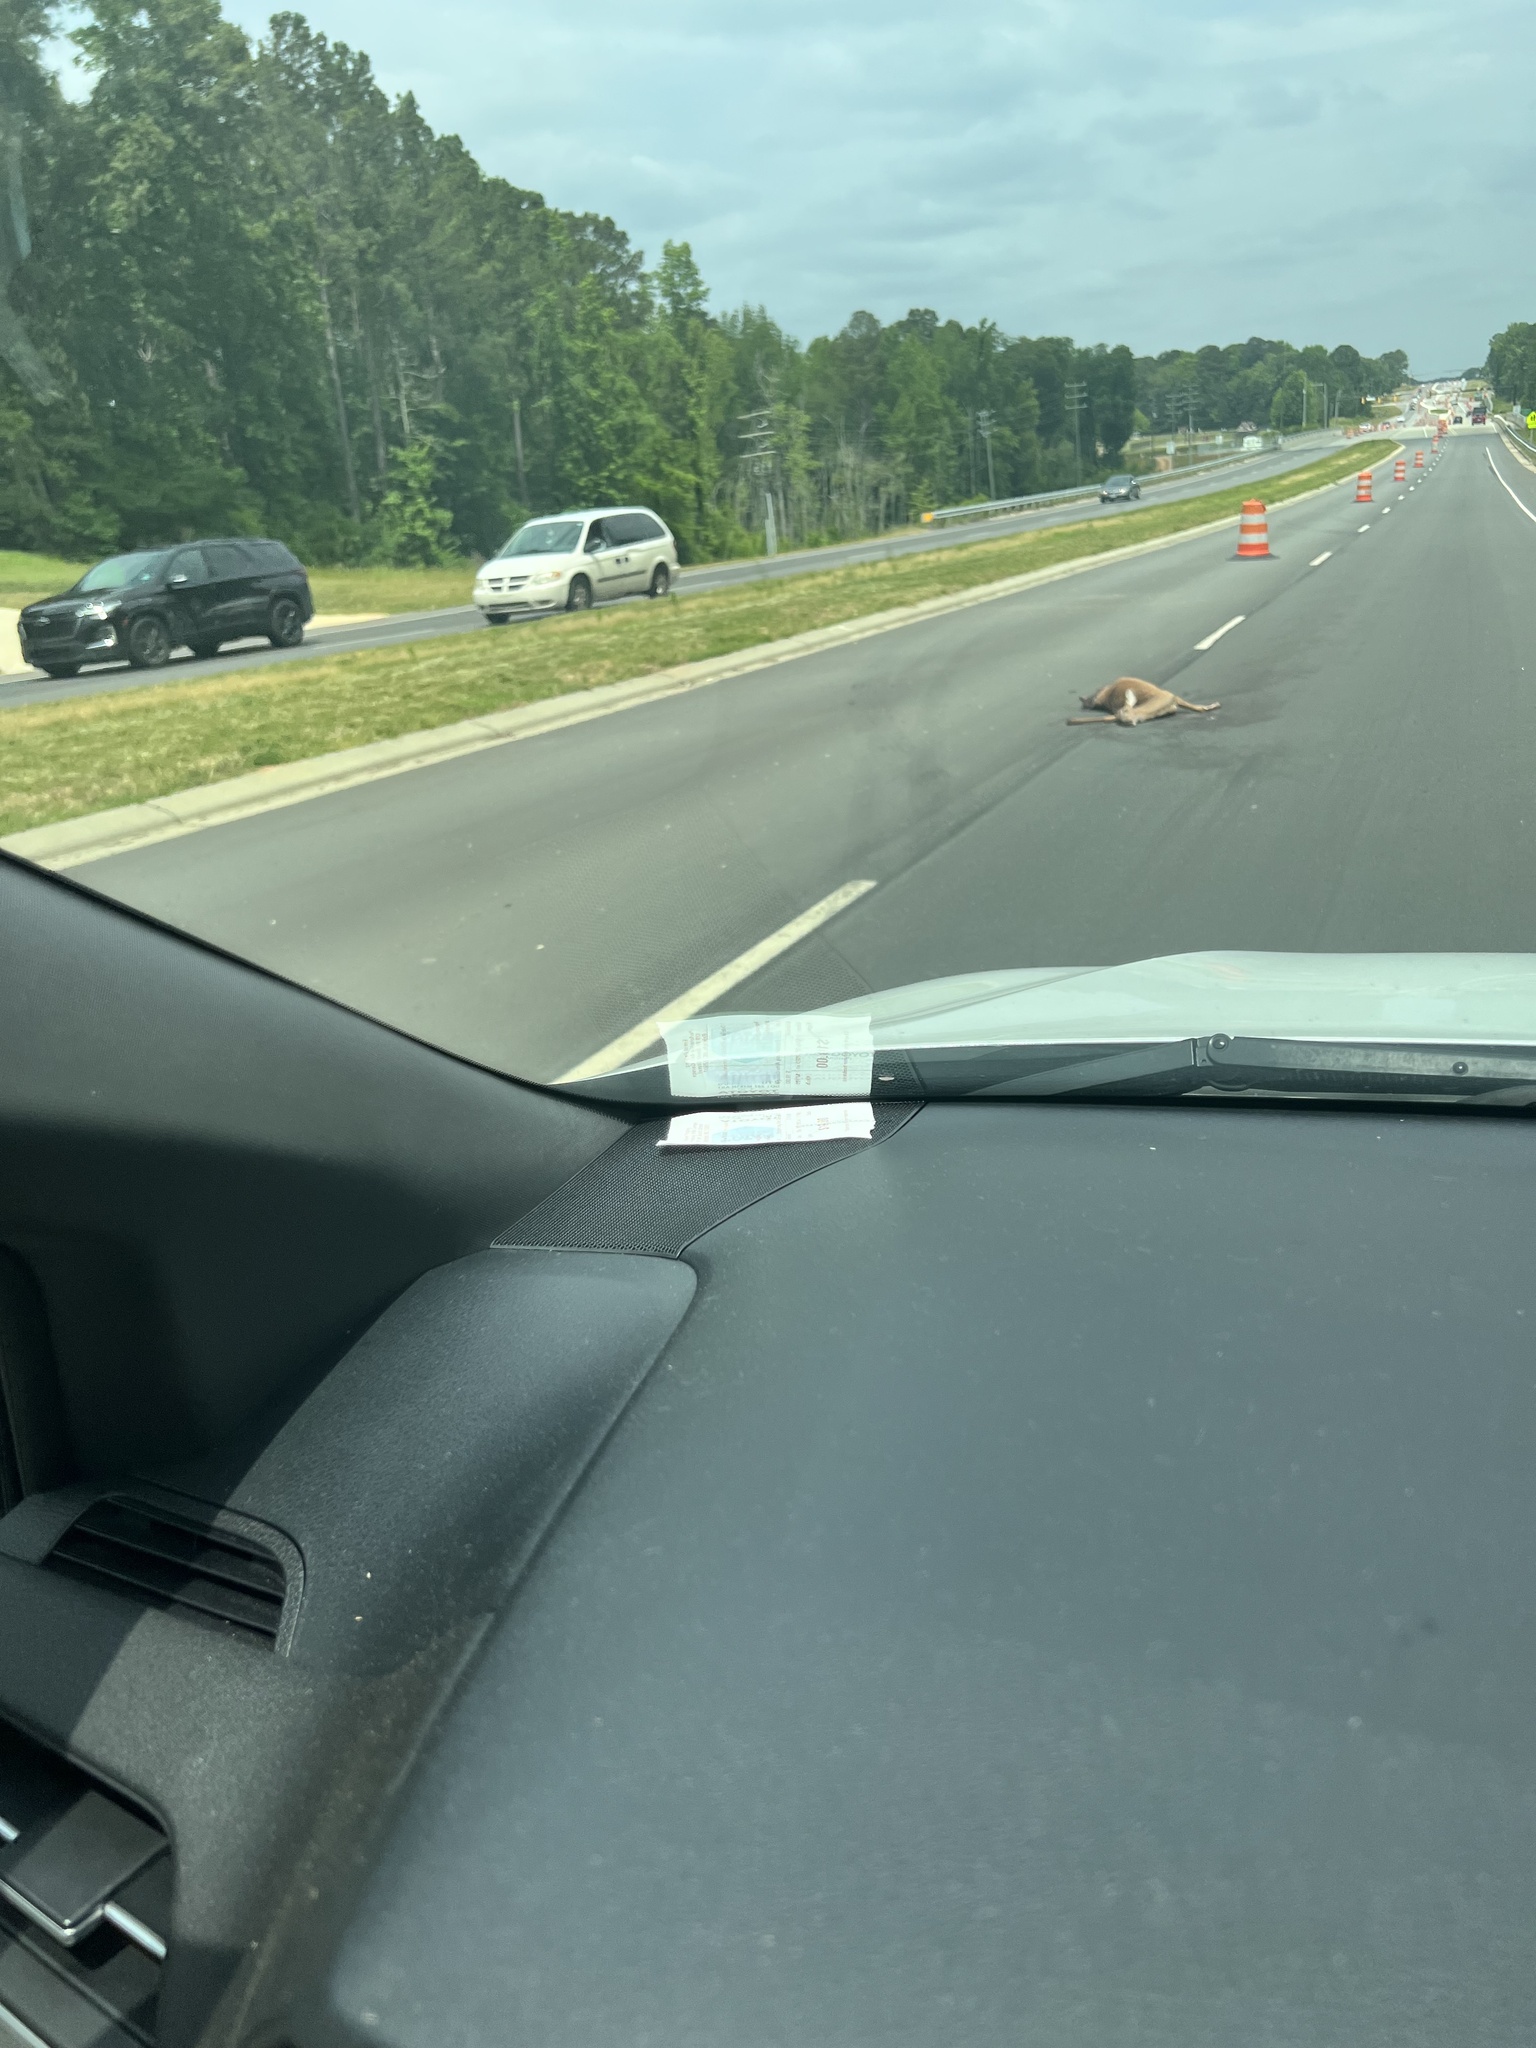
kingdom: Animalia
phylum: Chordata
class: Mammalia
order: Artiodactyla
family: Cervidae
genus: Odocoileus
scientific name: Odocoileus virginianus
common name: White-tailed deer
